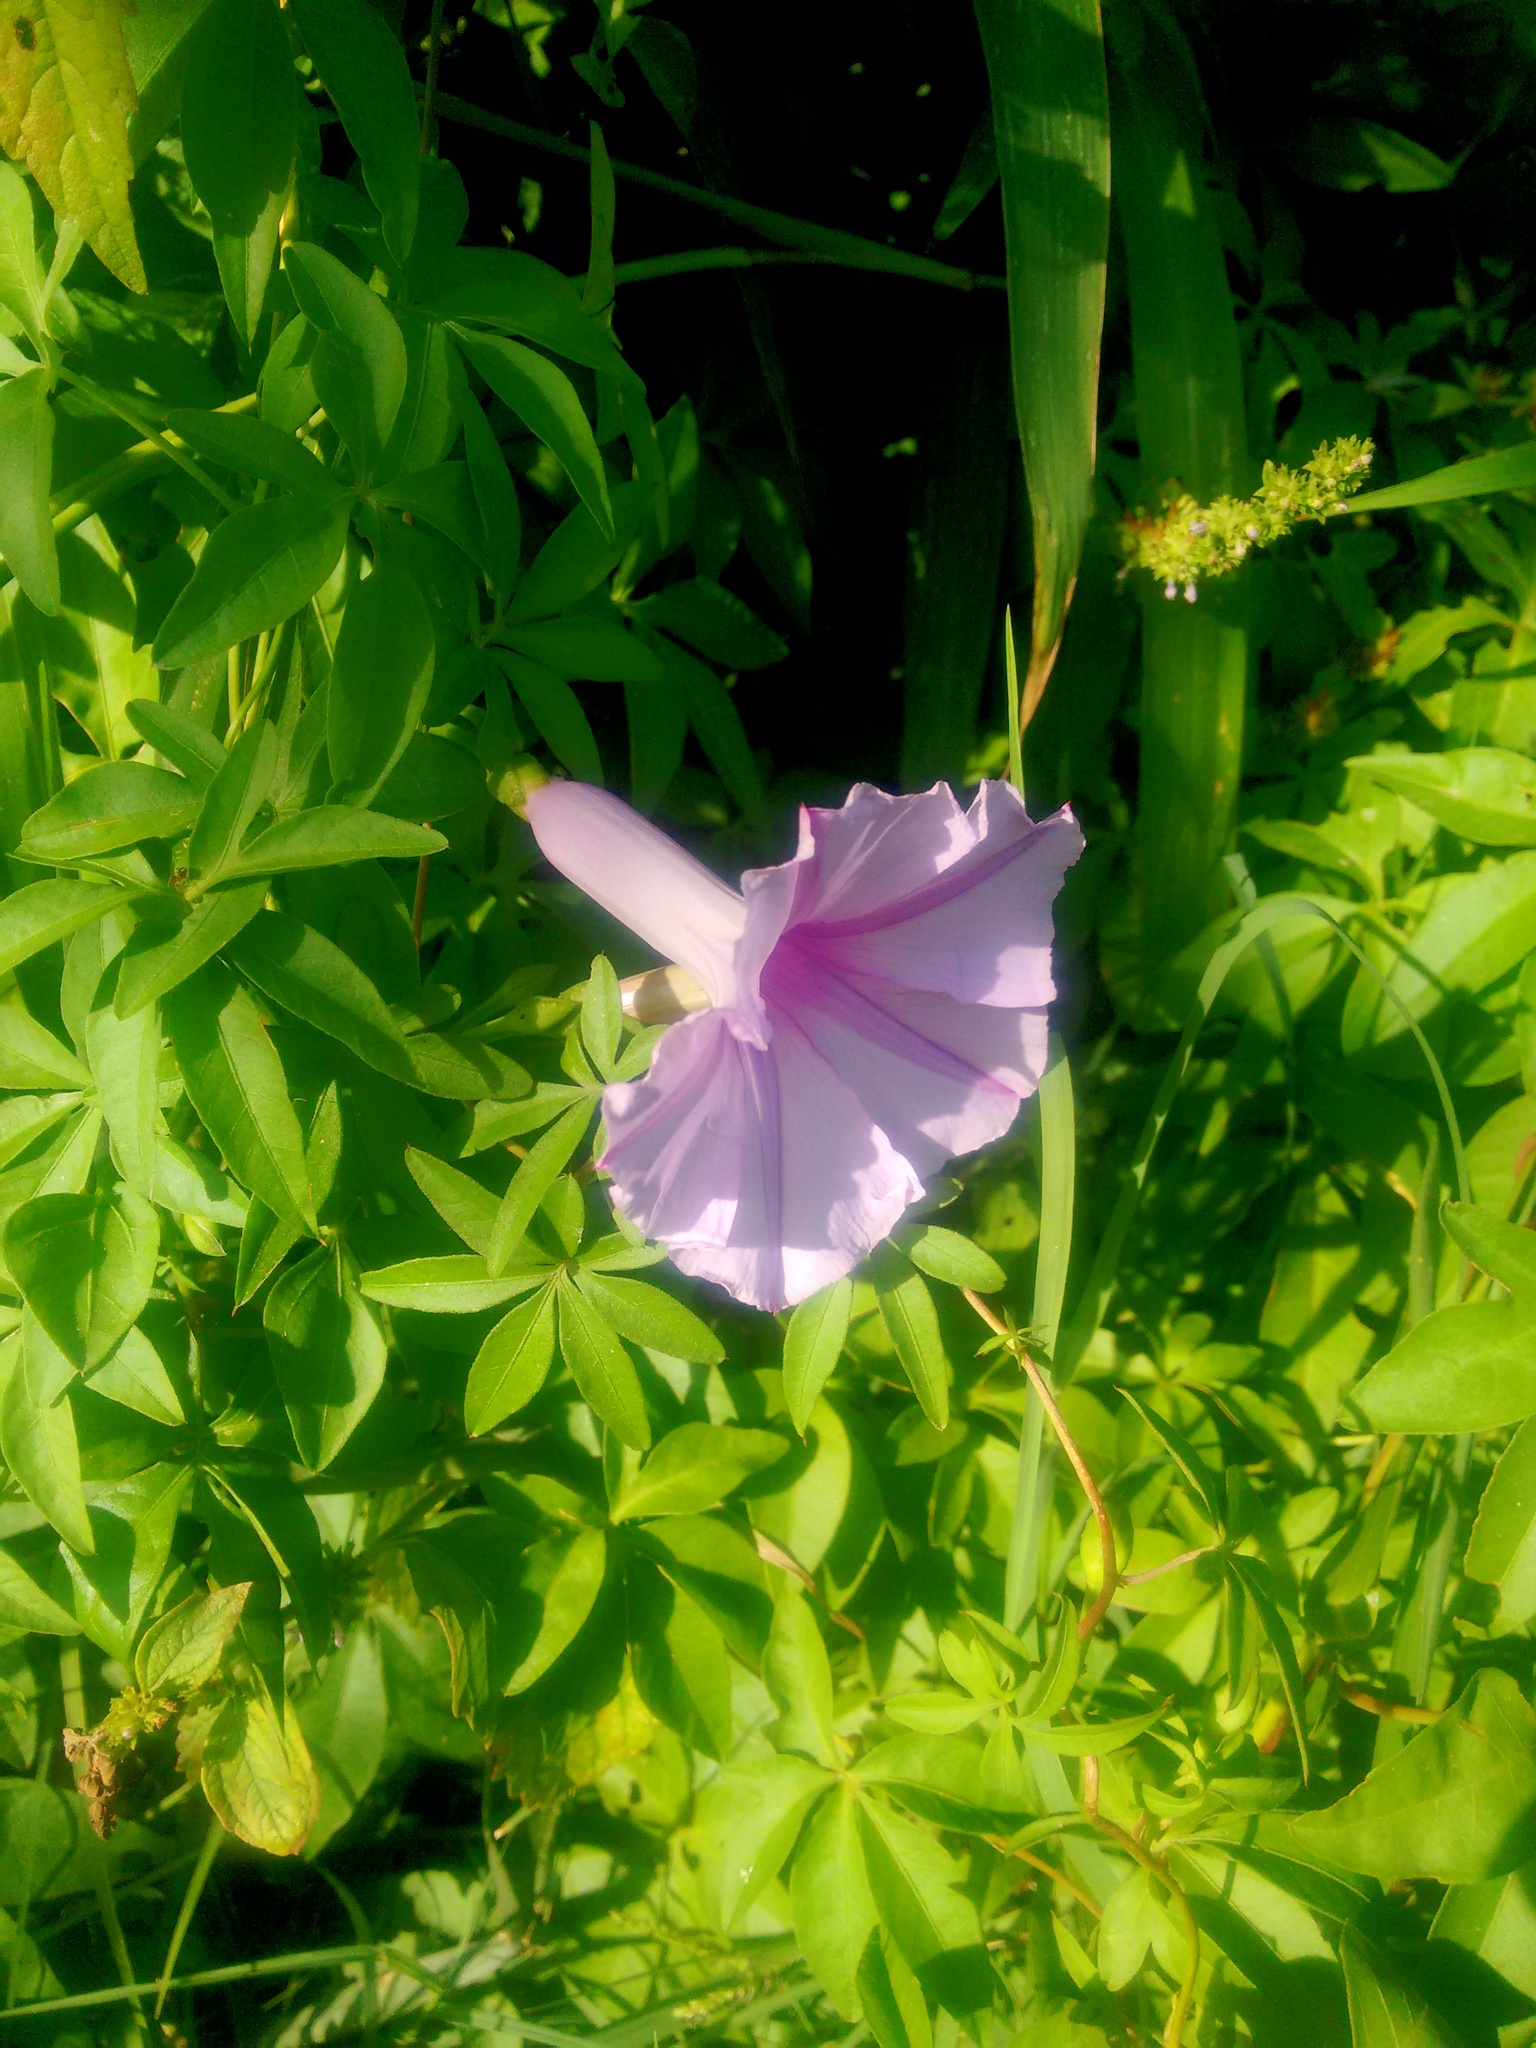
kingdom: Plantae
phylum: Tracheophyta
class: Magnoliopsida
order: Solanales
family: Convolvulaceae
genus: Ipomoea
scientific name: Ipomoea cairica
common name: Mile a minute vine
